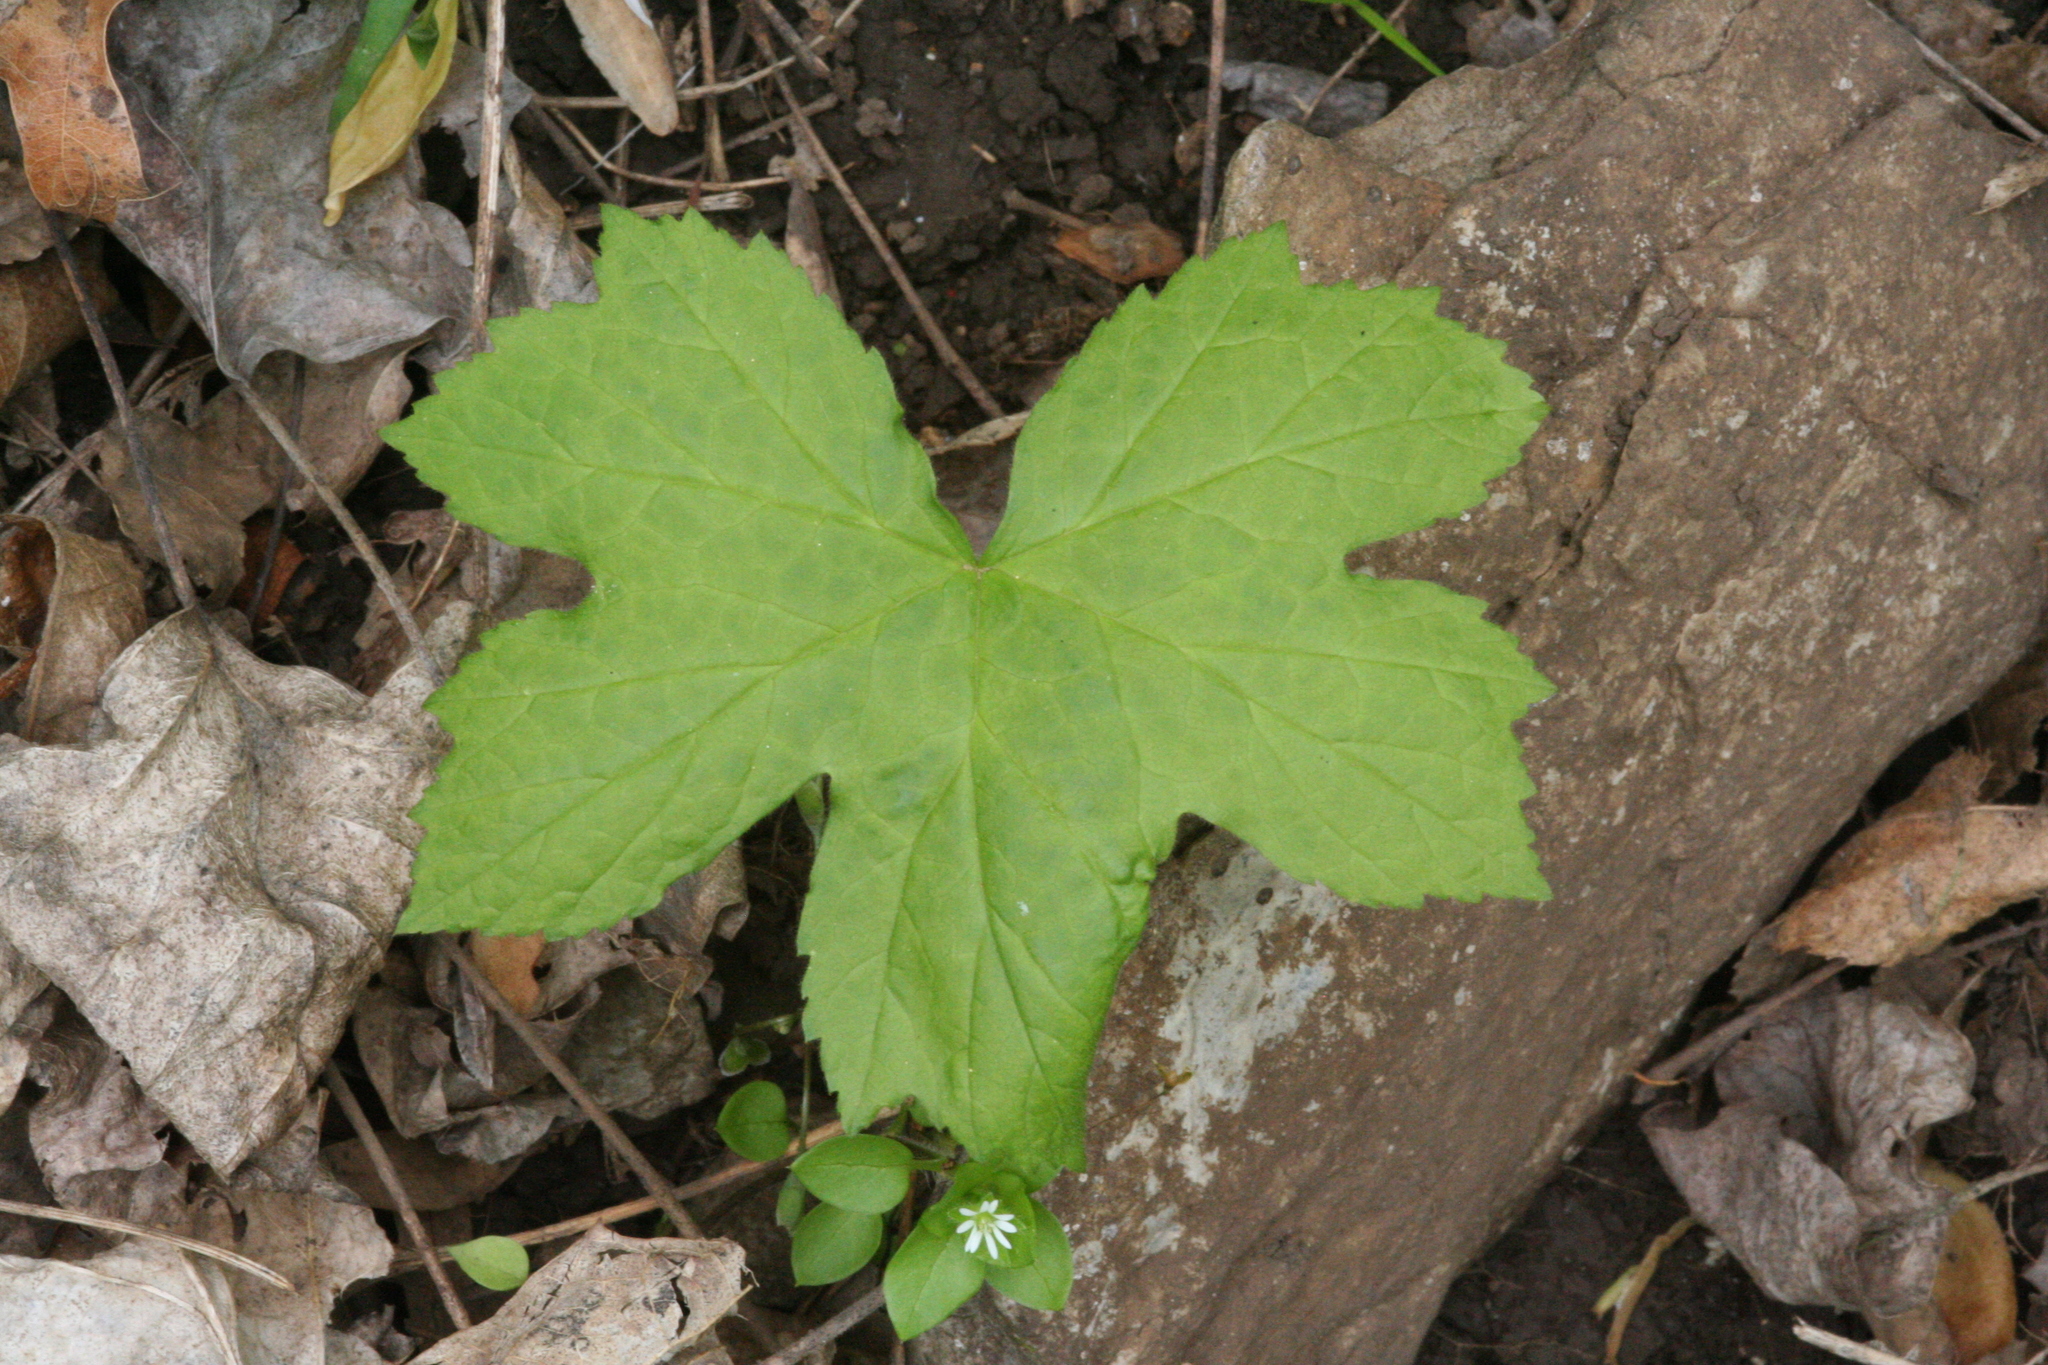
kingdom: Plantae
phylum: Tracheophyta
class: Magnoliopsida
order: Ranunculales
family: Ranunculaceae
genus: Hydrastis
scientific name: Hydrastis canadensis
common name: Goldenseal
